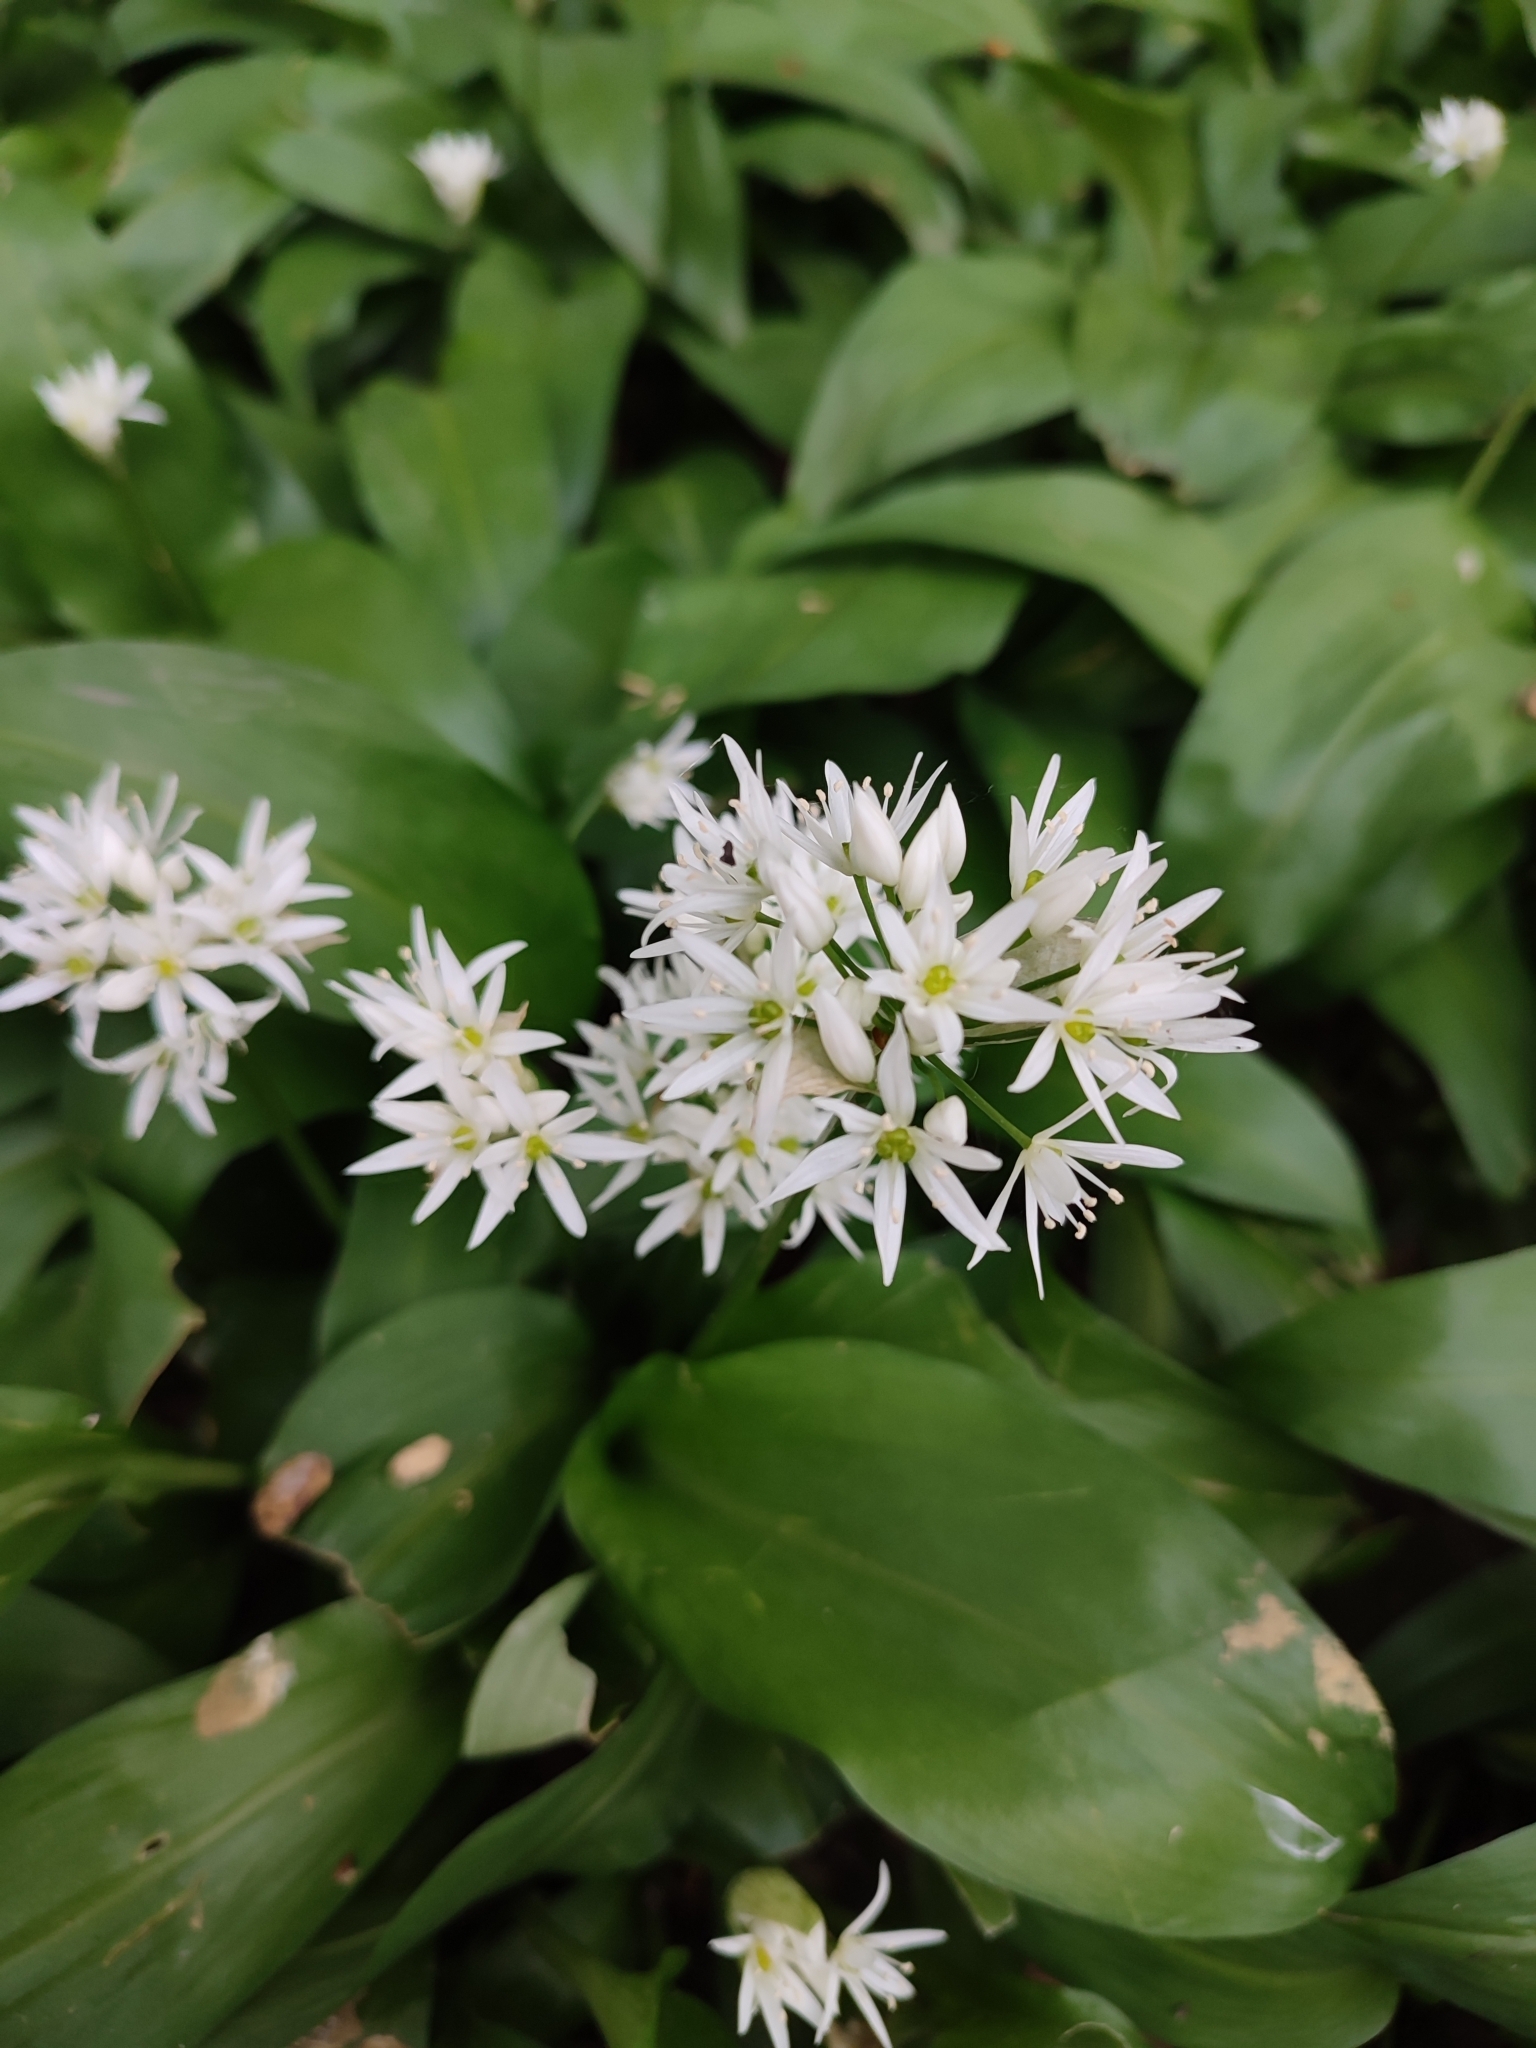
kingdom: Plantae
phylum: Tracheophyta
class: Liliopsida
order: Asparagales
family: Amaryllidaceae
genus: Allium
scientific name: Allium ursinum
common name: Ramsons
